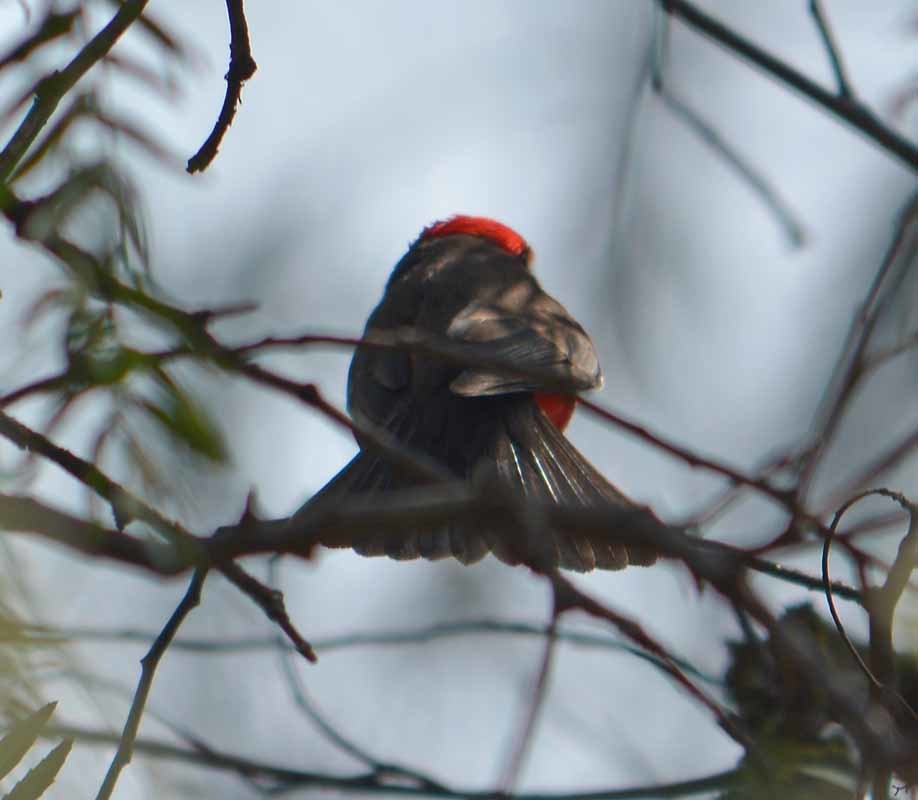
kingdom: Animalia
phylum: Chordata
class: Aves
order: Passeriformes
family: Tyrannidae
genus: Pyrocephalus
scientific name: Pyrocephalus rubinus
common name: Vermilion flycatcher
